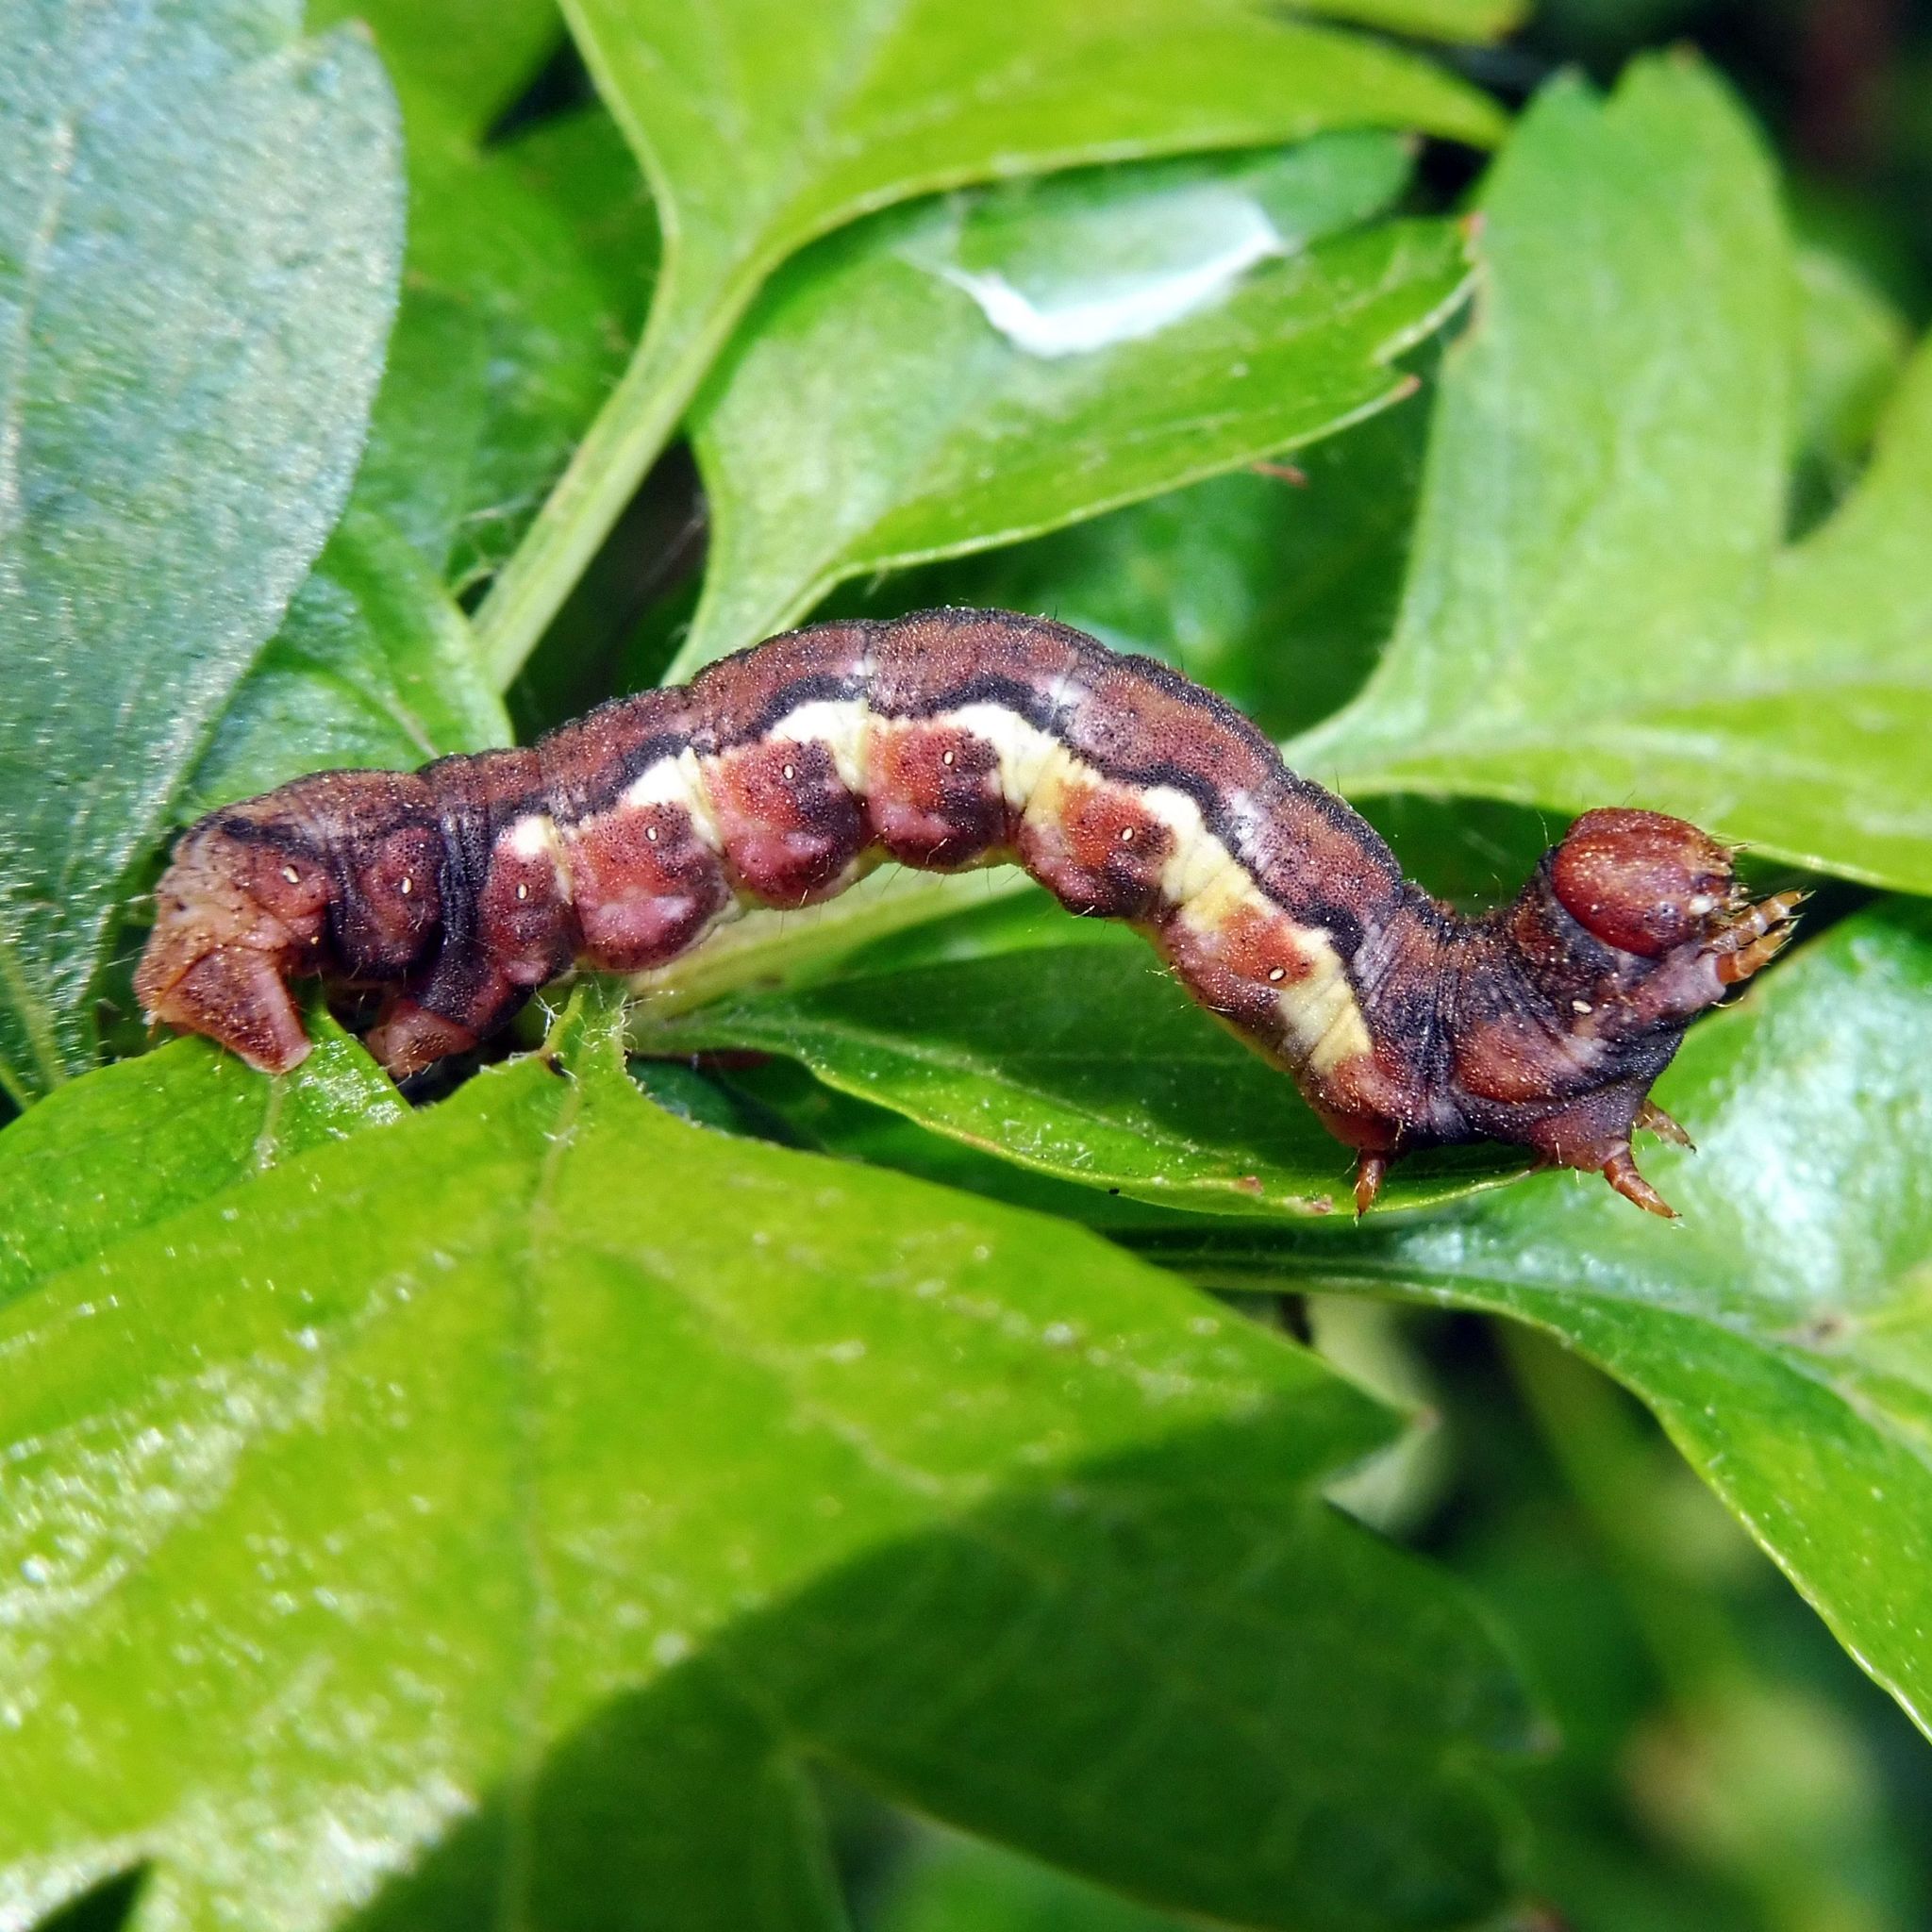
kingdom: Animalia
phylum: Arthropoda
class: Insecta
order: Lepidoptera
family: Geometridae
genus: Erannis
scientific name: Erannis defoliaria
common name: Mottled umber
